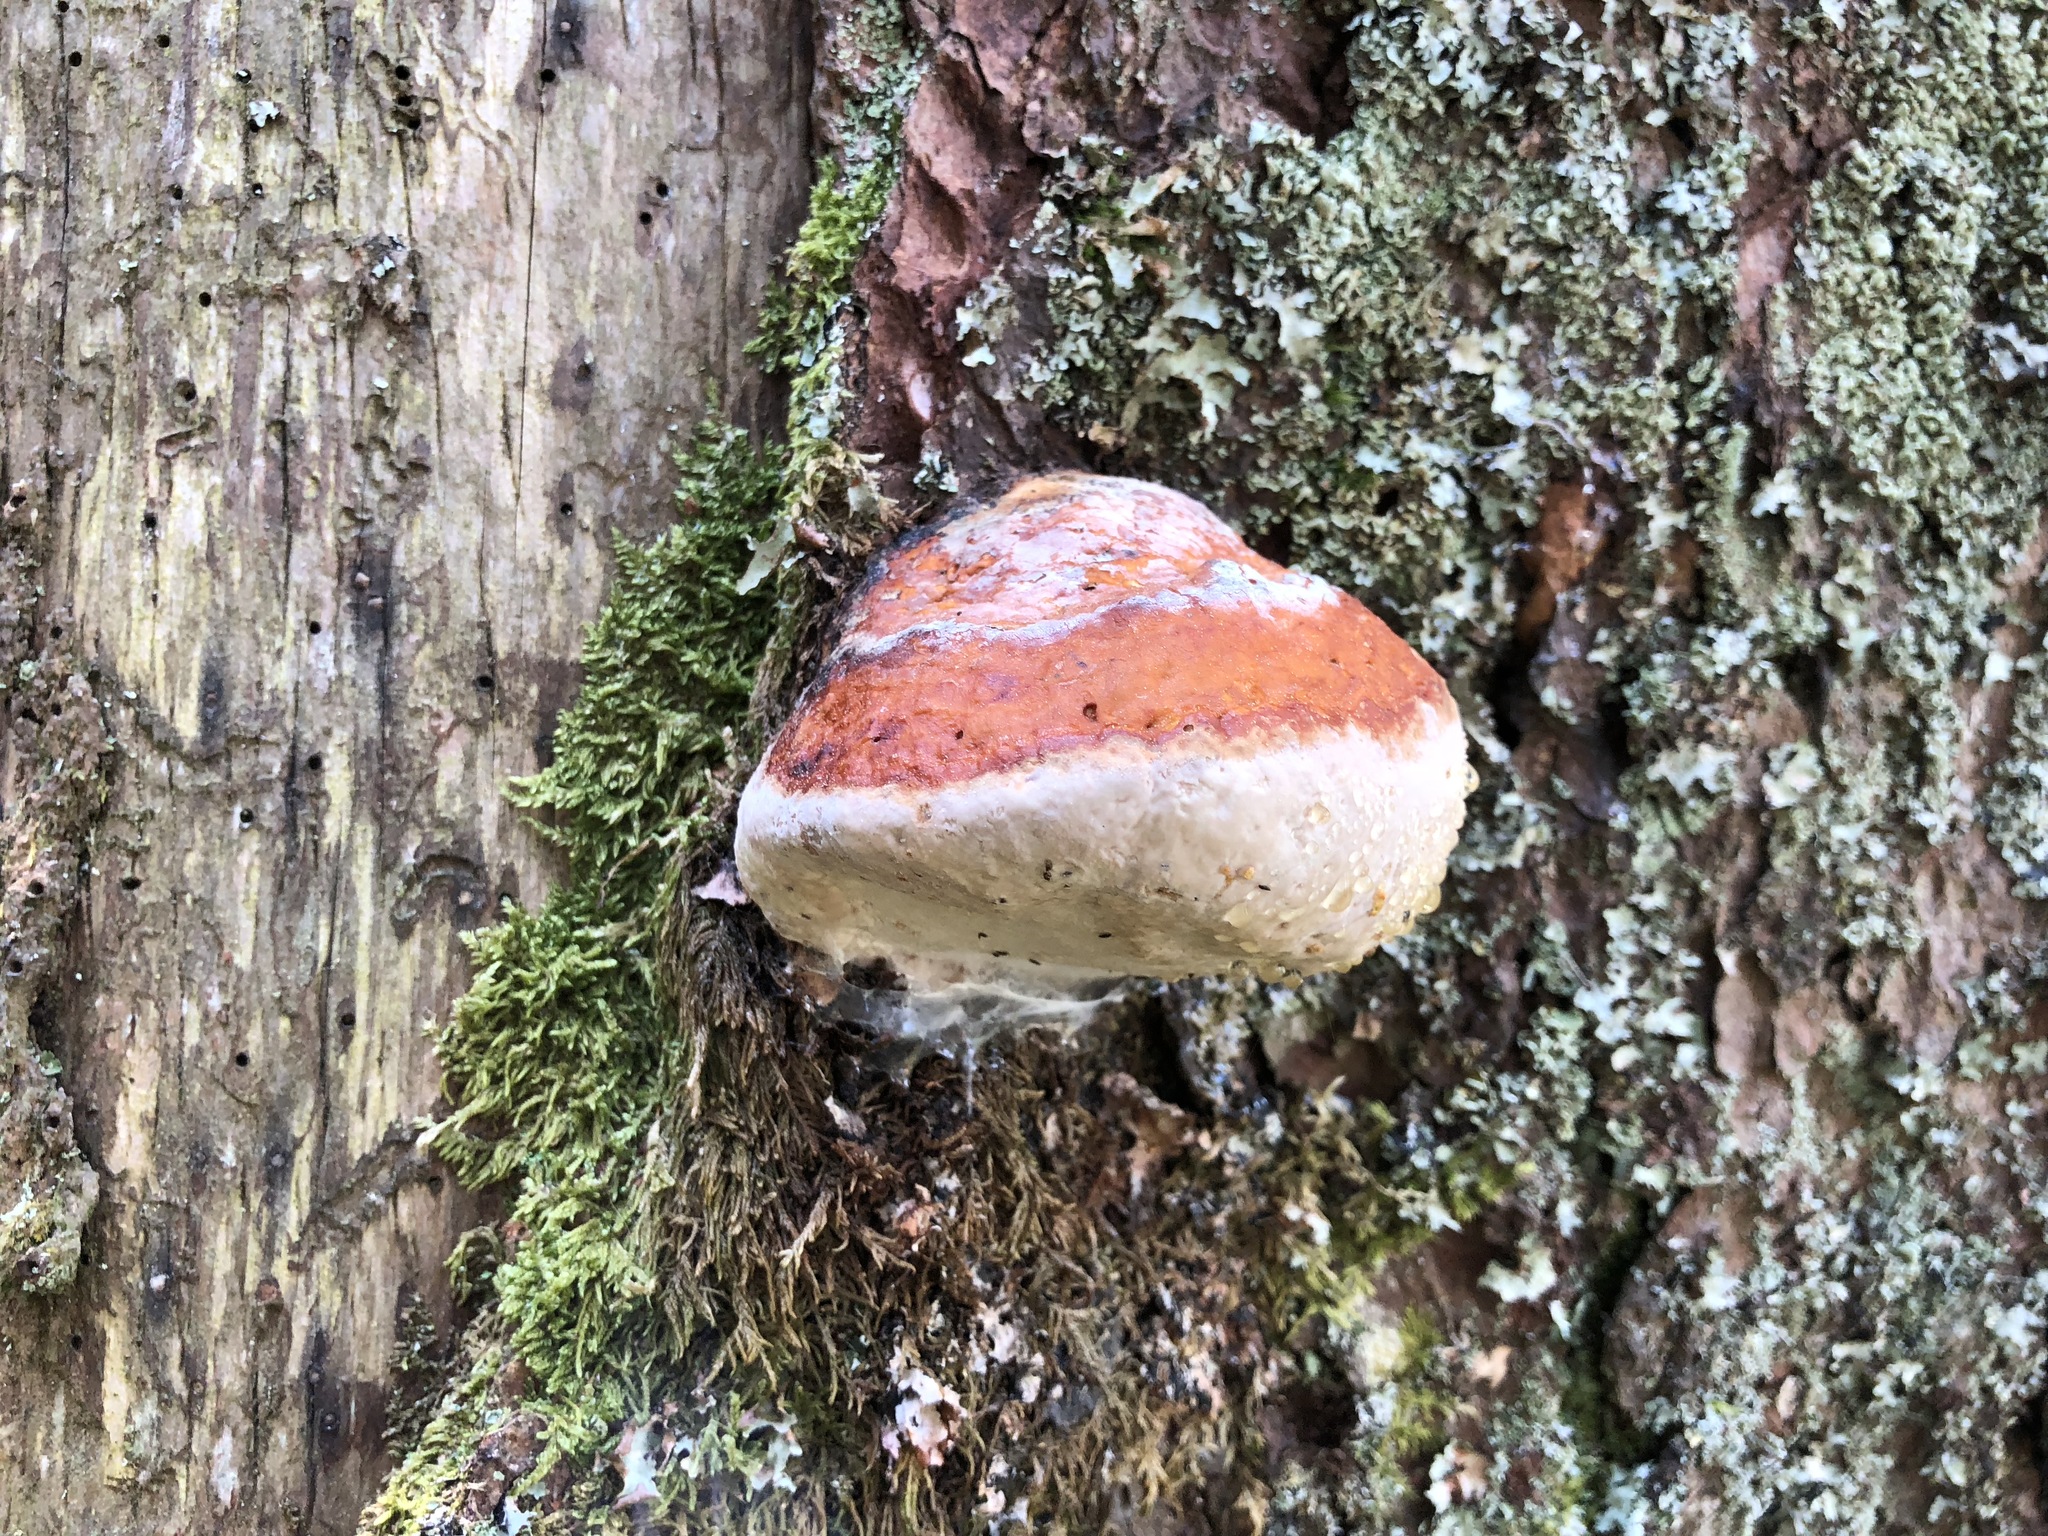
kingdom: Fungi
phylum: Basidiomycota
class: Agaricomycetes
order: Polyporales
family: Fomitopsidaceae
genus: Fomitopsis
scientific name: Fomitopsis pinicola
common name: Red-belted bracket
